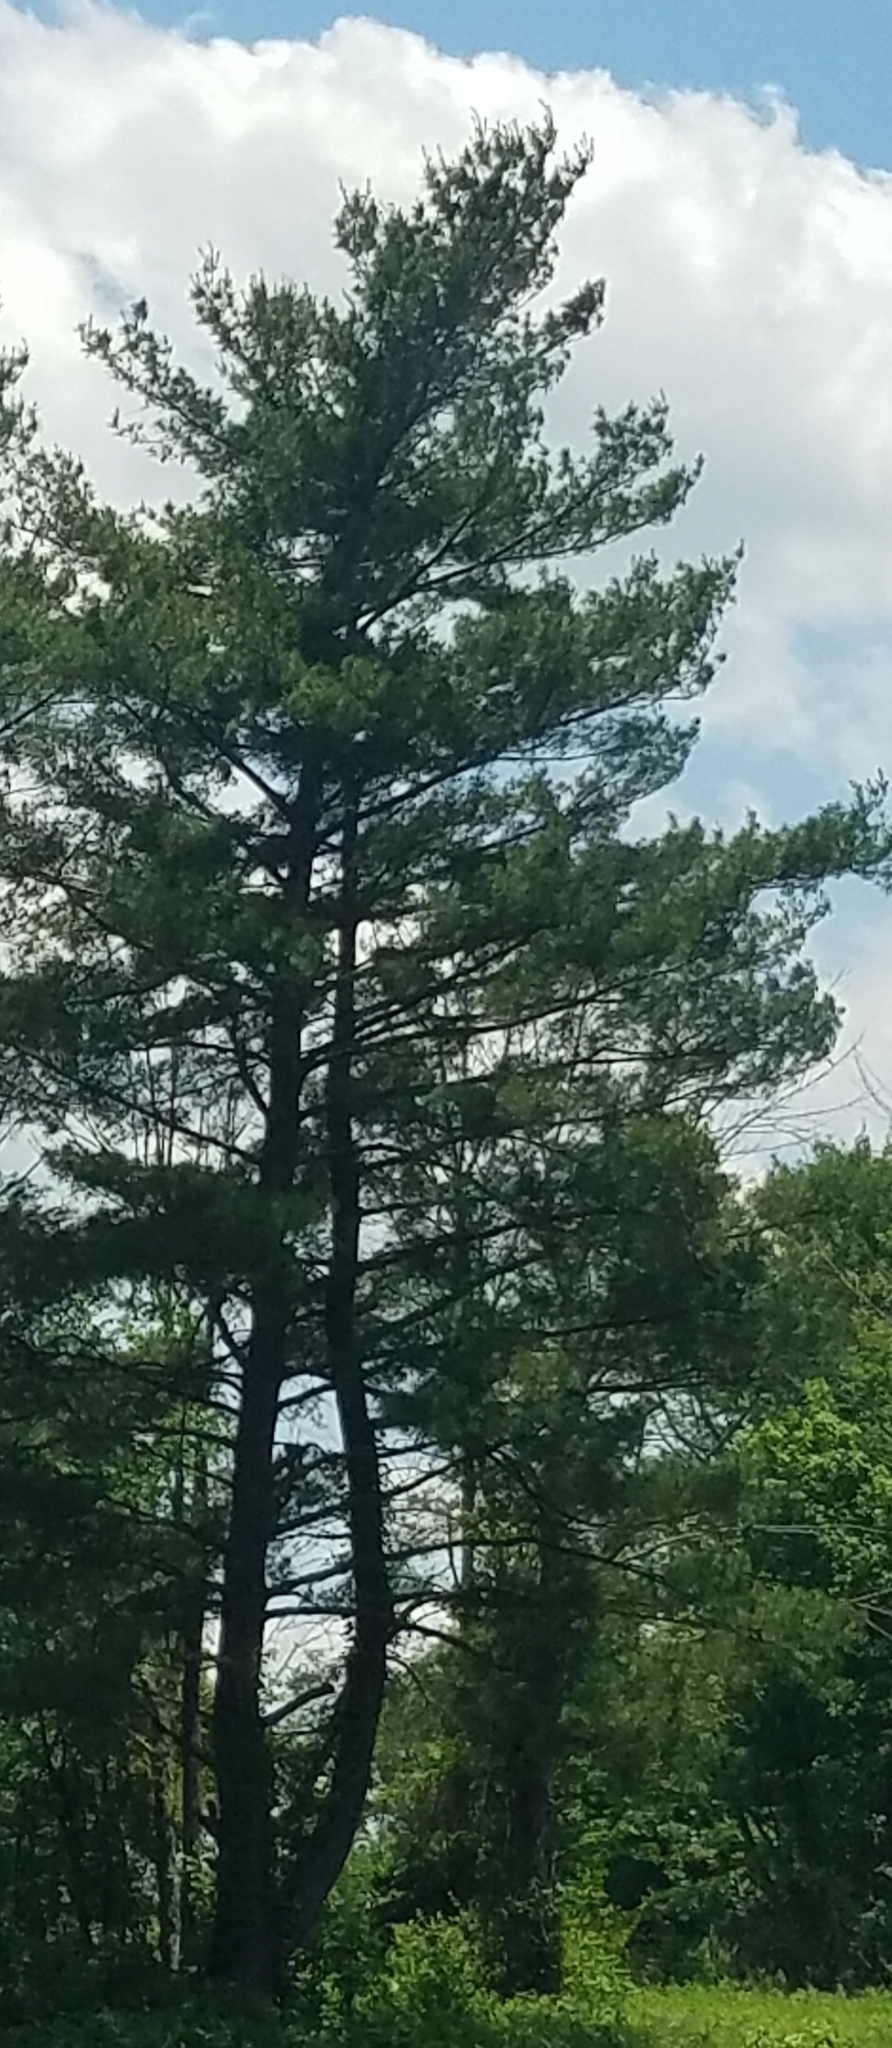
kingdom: Plantae
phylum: Tracheophyta
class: Pinopsida
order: Pinales
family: Pinaceae
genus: Pinus
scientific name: Pinus strobus
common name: Weymouth pine
